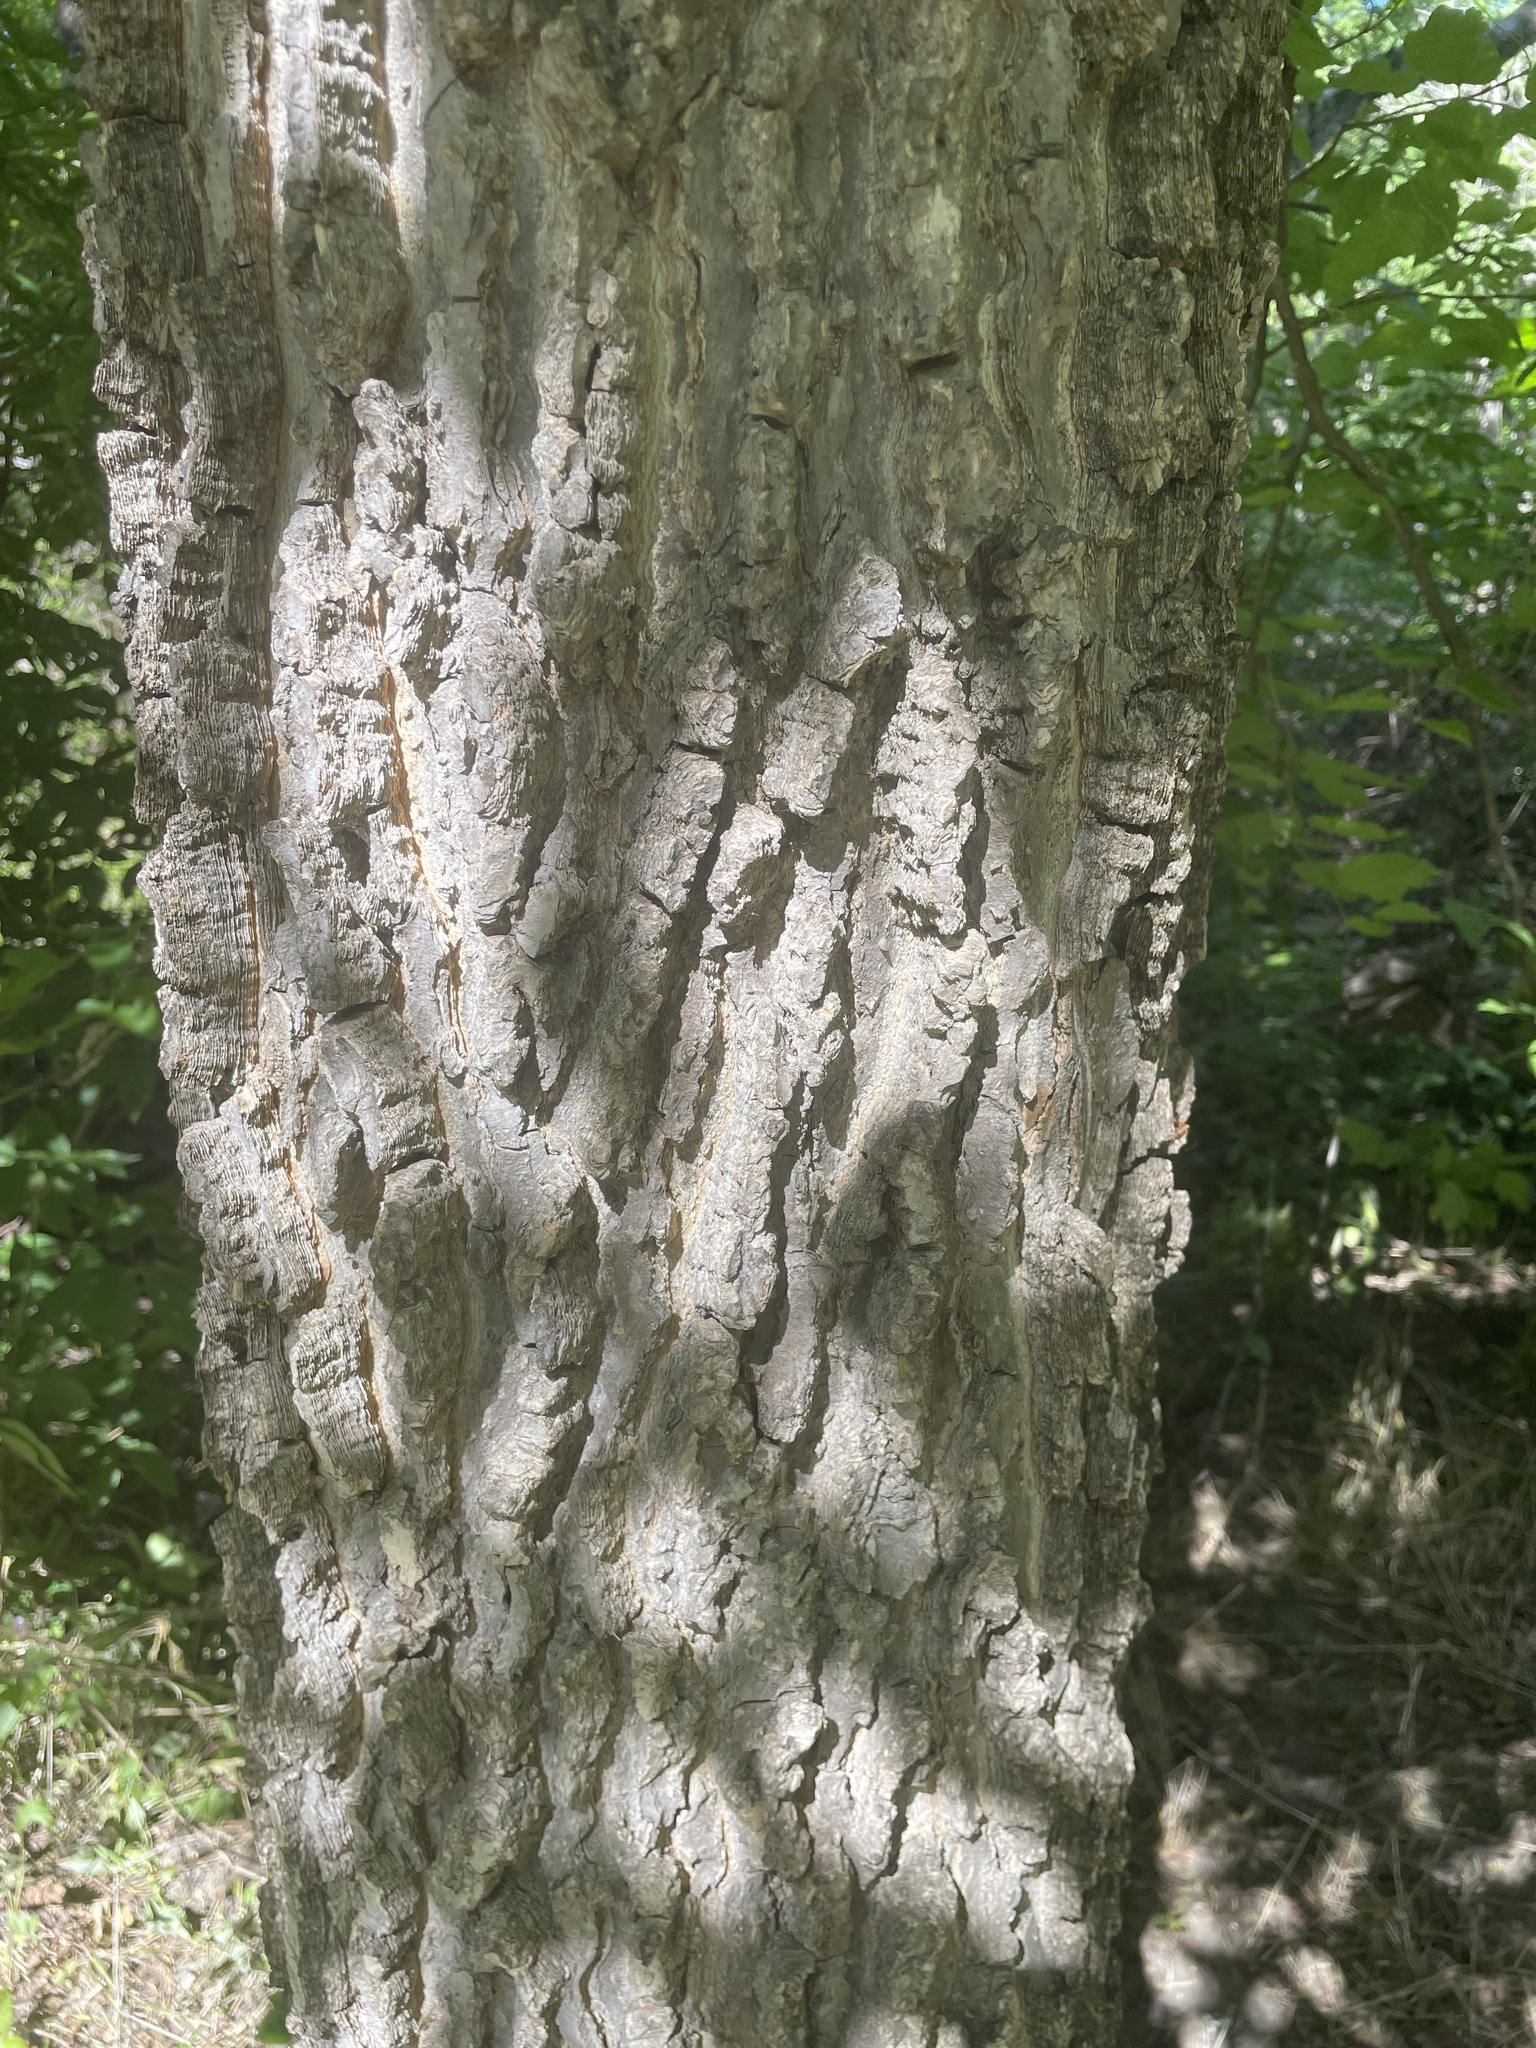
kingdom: Plantae
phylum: Tracheophyta
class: Magnoliopsida
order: Rosales
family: Cannabaceae
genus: Celtis
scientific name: Celtis occidentalis
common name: Common hackberry
